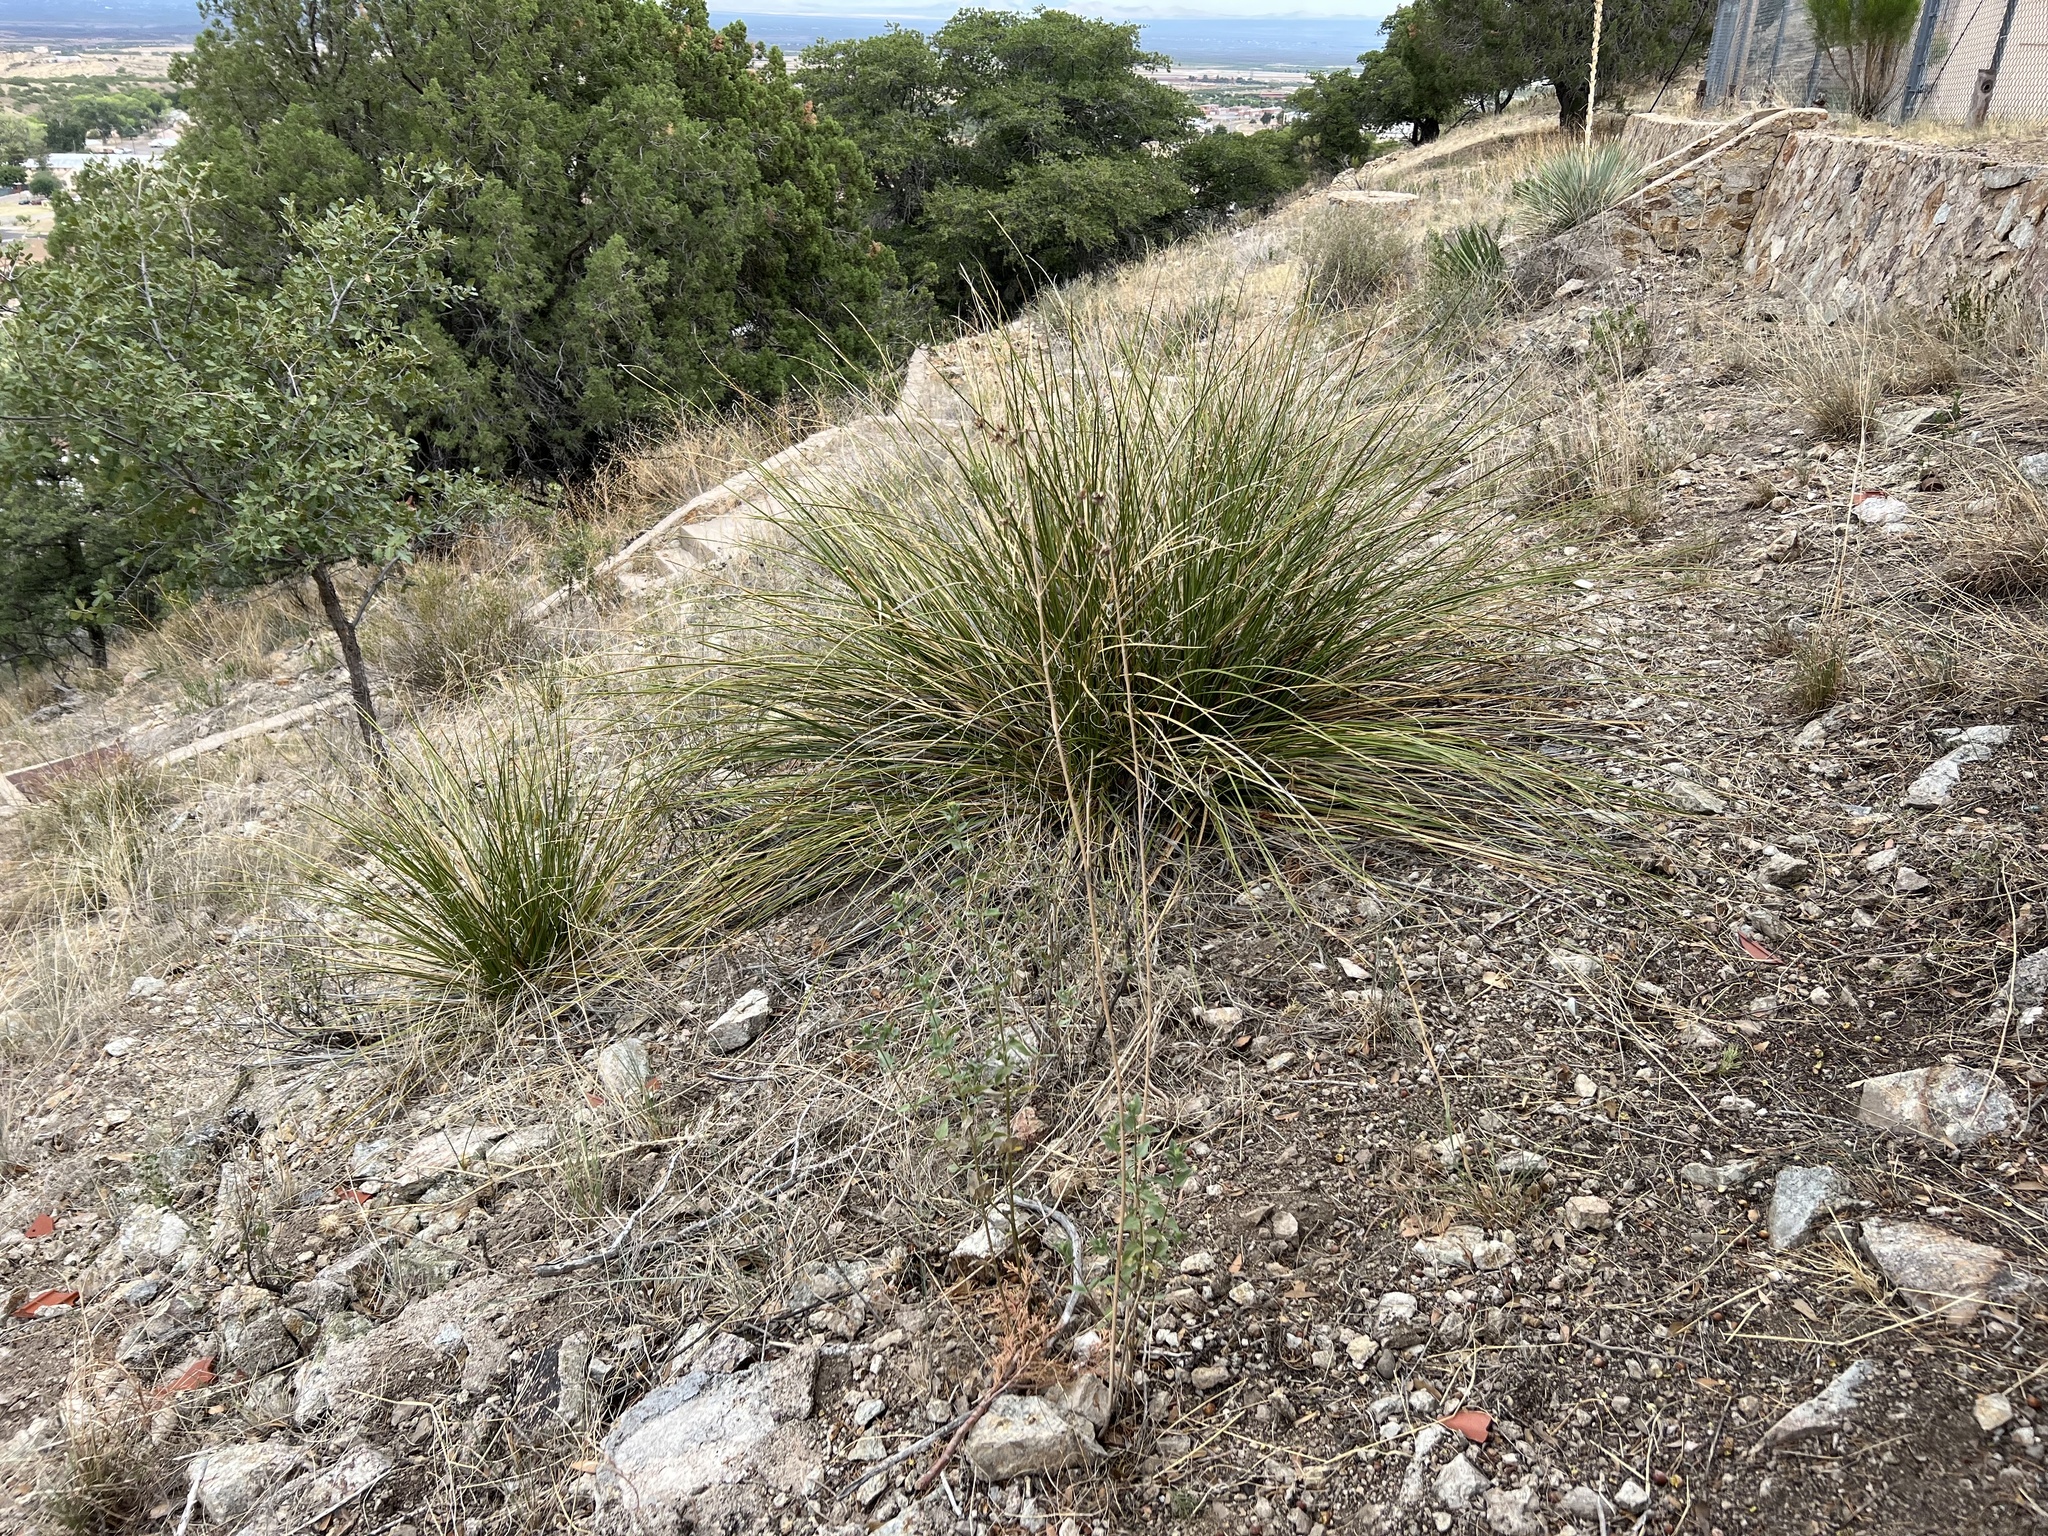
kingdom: Plantae
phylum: Tracheophyta
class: Liliopsida
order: Asparagales
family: Asparagaceae
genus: Nolina
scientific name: Nolina microcarpa
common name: Bear-grass
